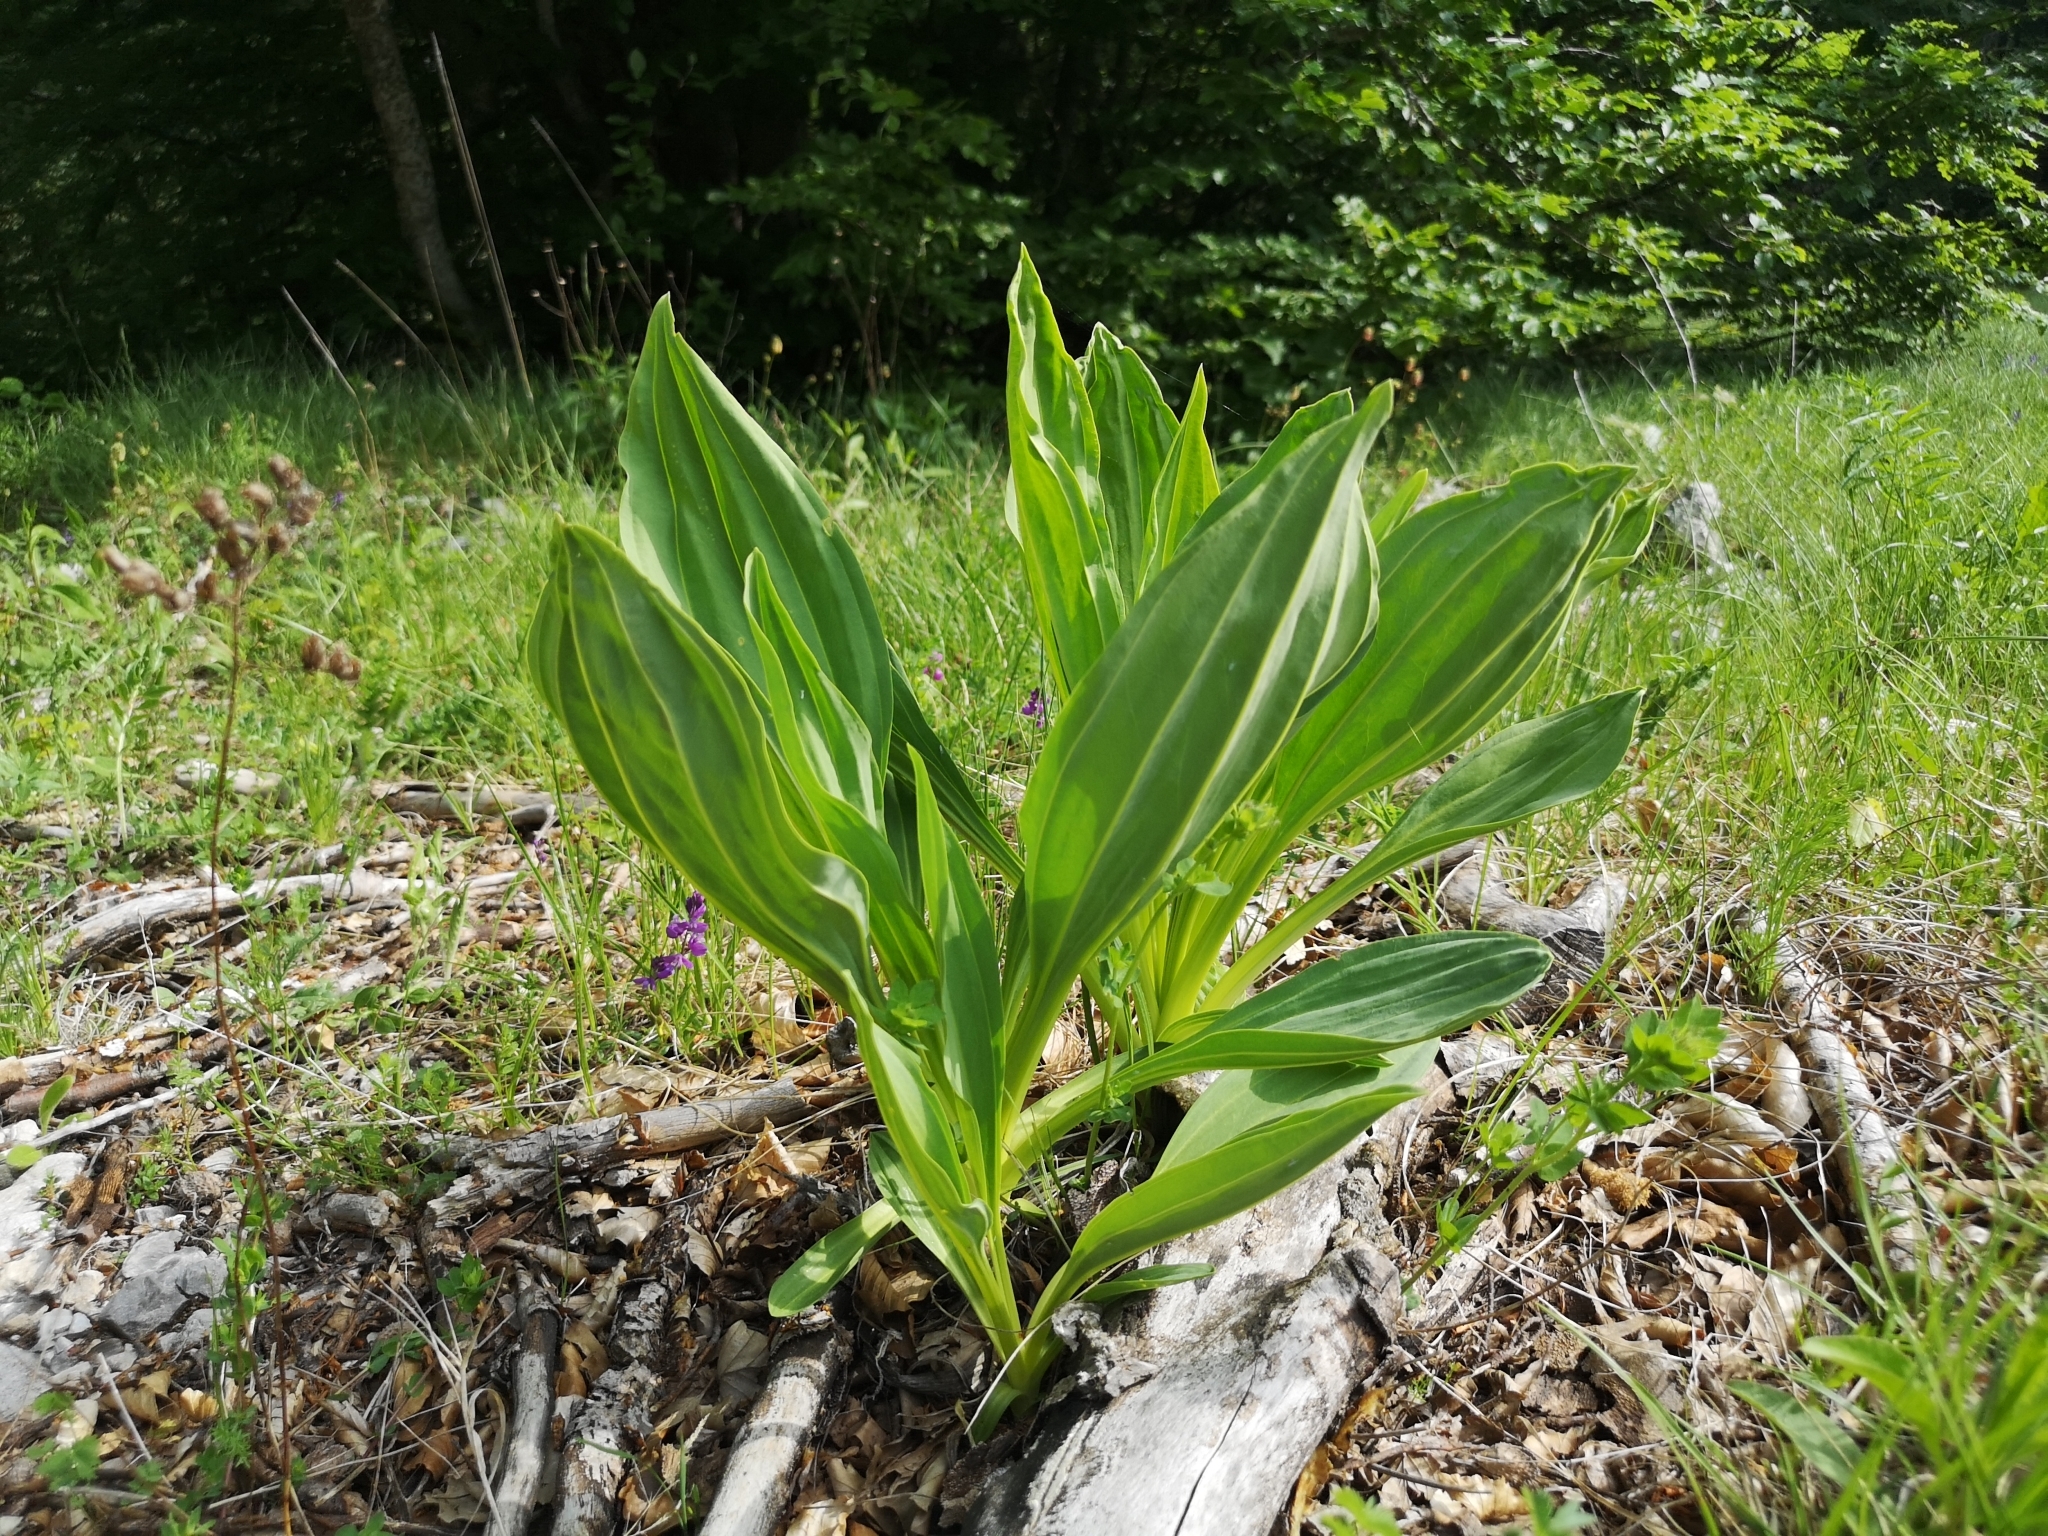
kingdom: Plantae
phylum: Tracheophyta
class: Magnoliopsida
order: Gentianales
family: Gentianaceae
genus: Gentiana
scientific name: Gentiana lutea
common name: Great yellow gentian
